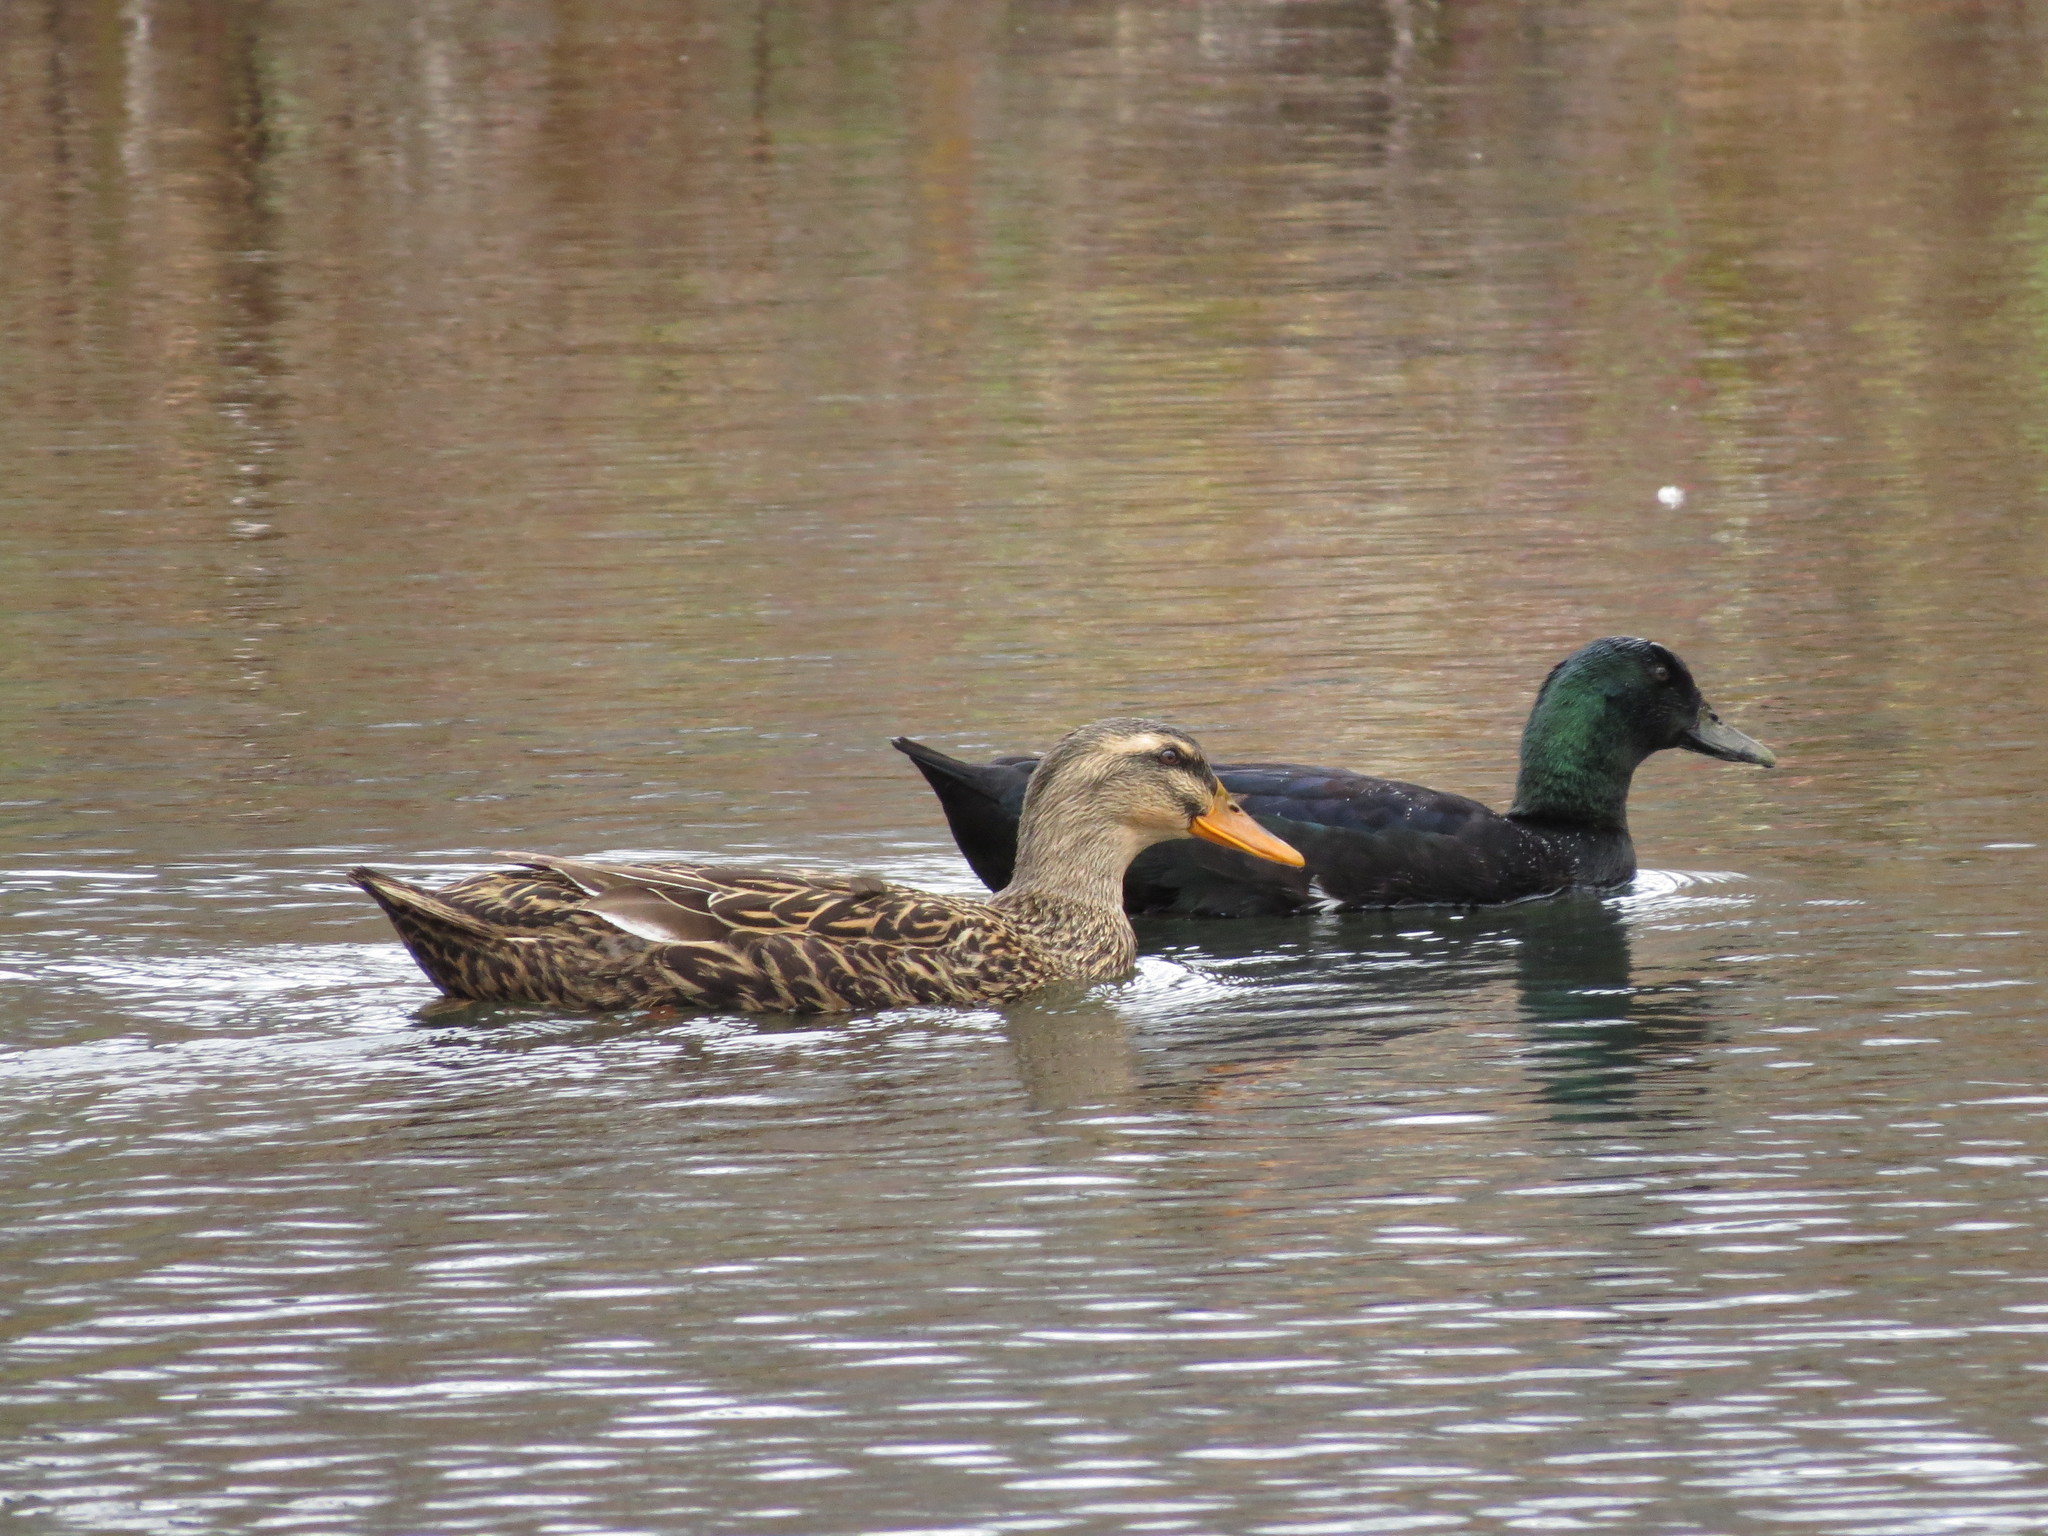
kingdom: Animalia
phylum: Chordata
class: Aves
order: Anseriformes
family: Anatidae
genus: Anas
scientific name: Anas platyrhynchos
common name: Mallard
